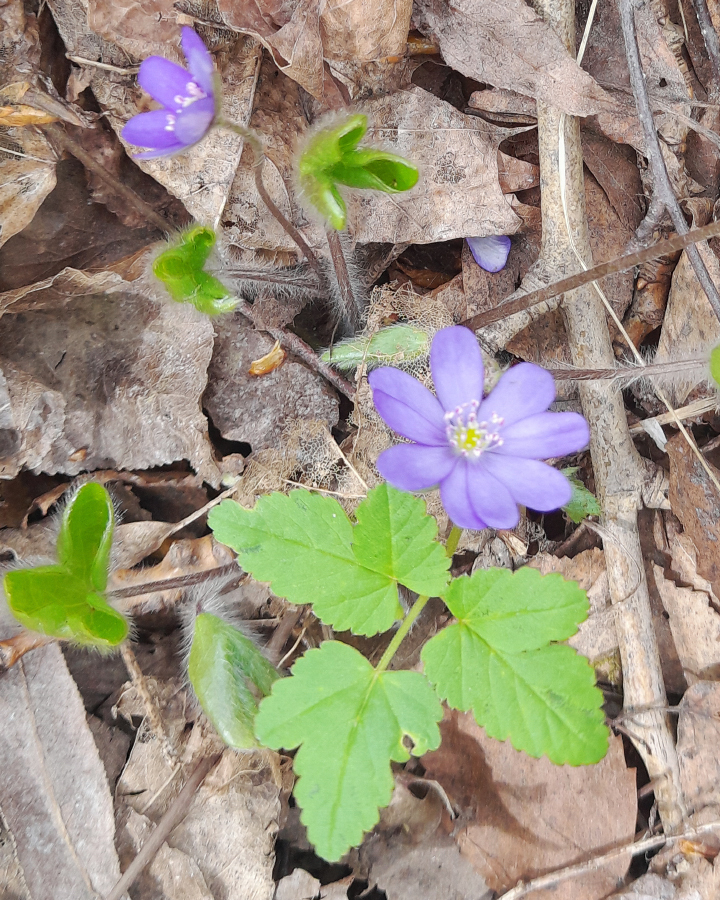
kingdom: Plantae
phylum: Tracheophyta
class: Magnoliopsida
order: Ranunculales
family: Ranunculaceae
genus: Hepatica
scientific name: Hepatica nobilis
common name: Liverleaf
